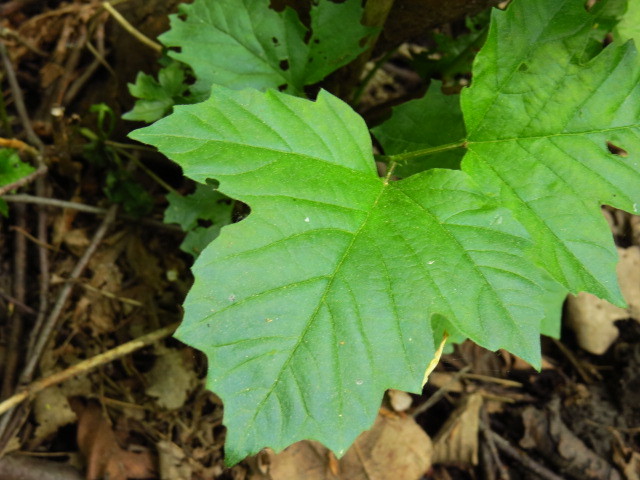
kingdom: Plantae
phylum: Tracheophyta
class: Magnoliopsida
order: Dipsacales
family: Viburnaceae
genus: Viburnum
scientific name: Viburnum opulus
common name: Guelder-rose
